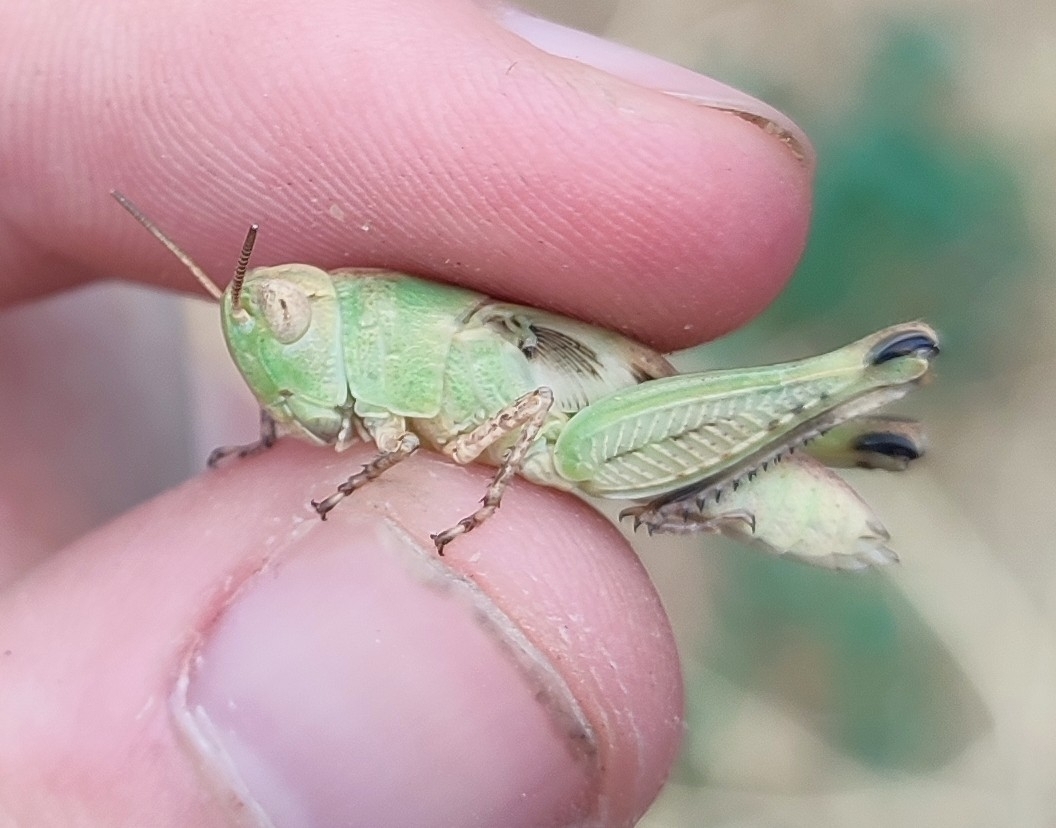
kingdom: Animalia
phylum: Arthropoda
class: Insecta
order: Orthoptera
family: Acrididae
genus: Aiolopus
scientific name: Aiolopus strepens
